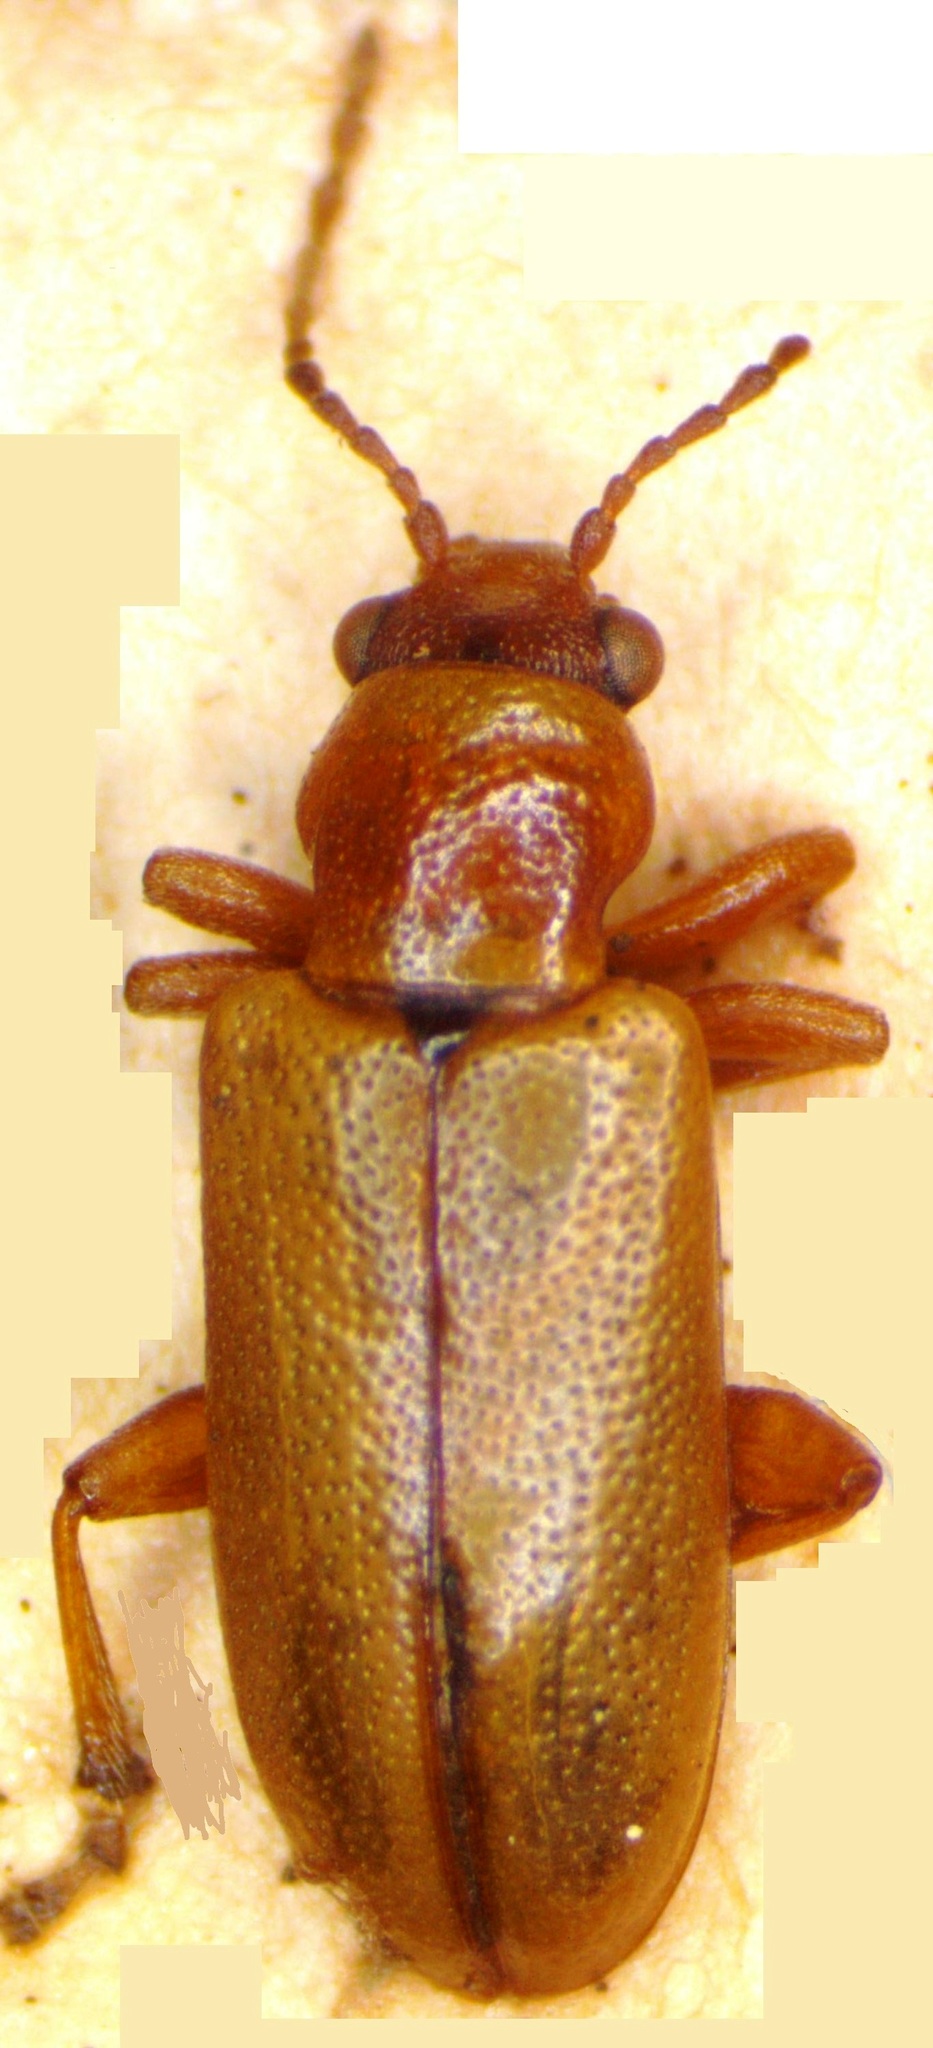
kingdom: Animalia
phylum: Arthropoda
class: Insecta
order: Coleoptera
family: Orsodacnidae
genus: Orsodacne
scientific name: Orsodacne cerasi
